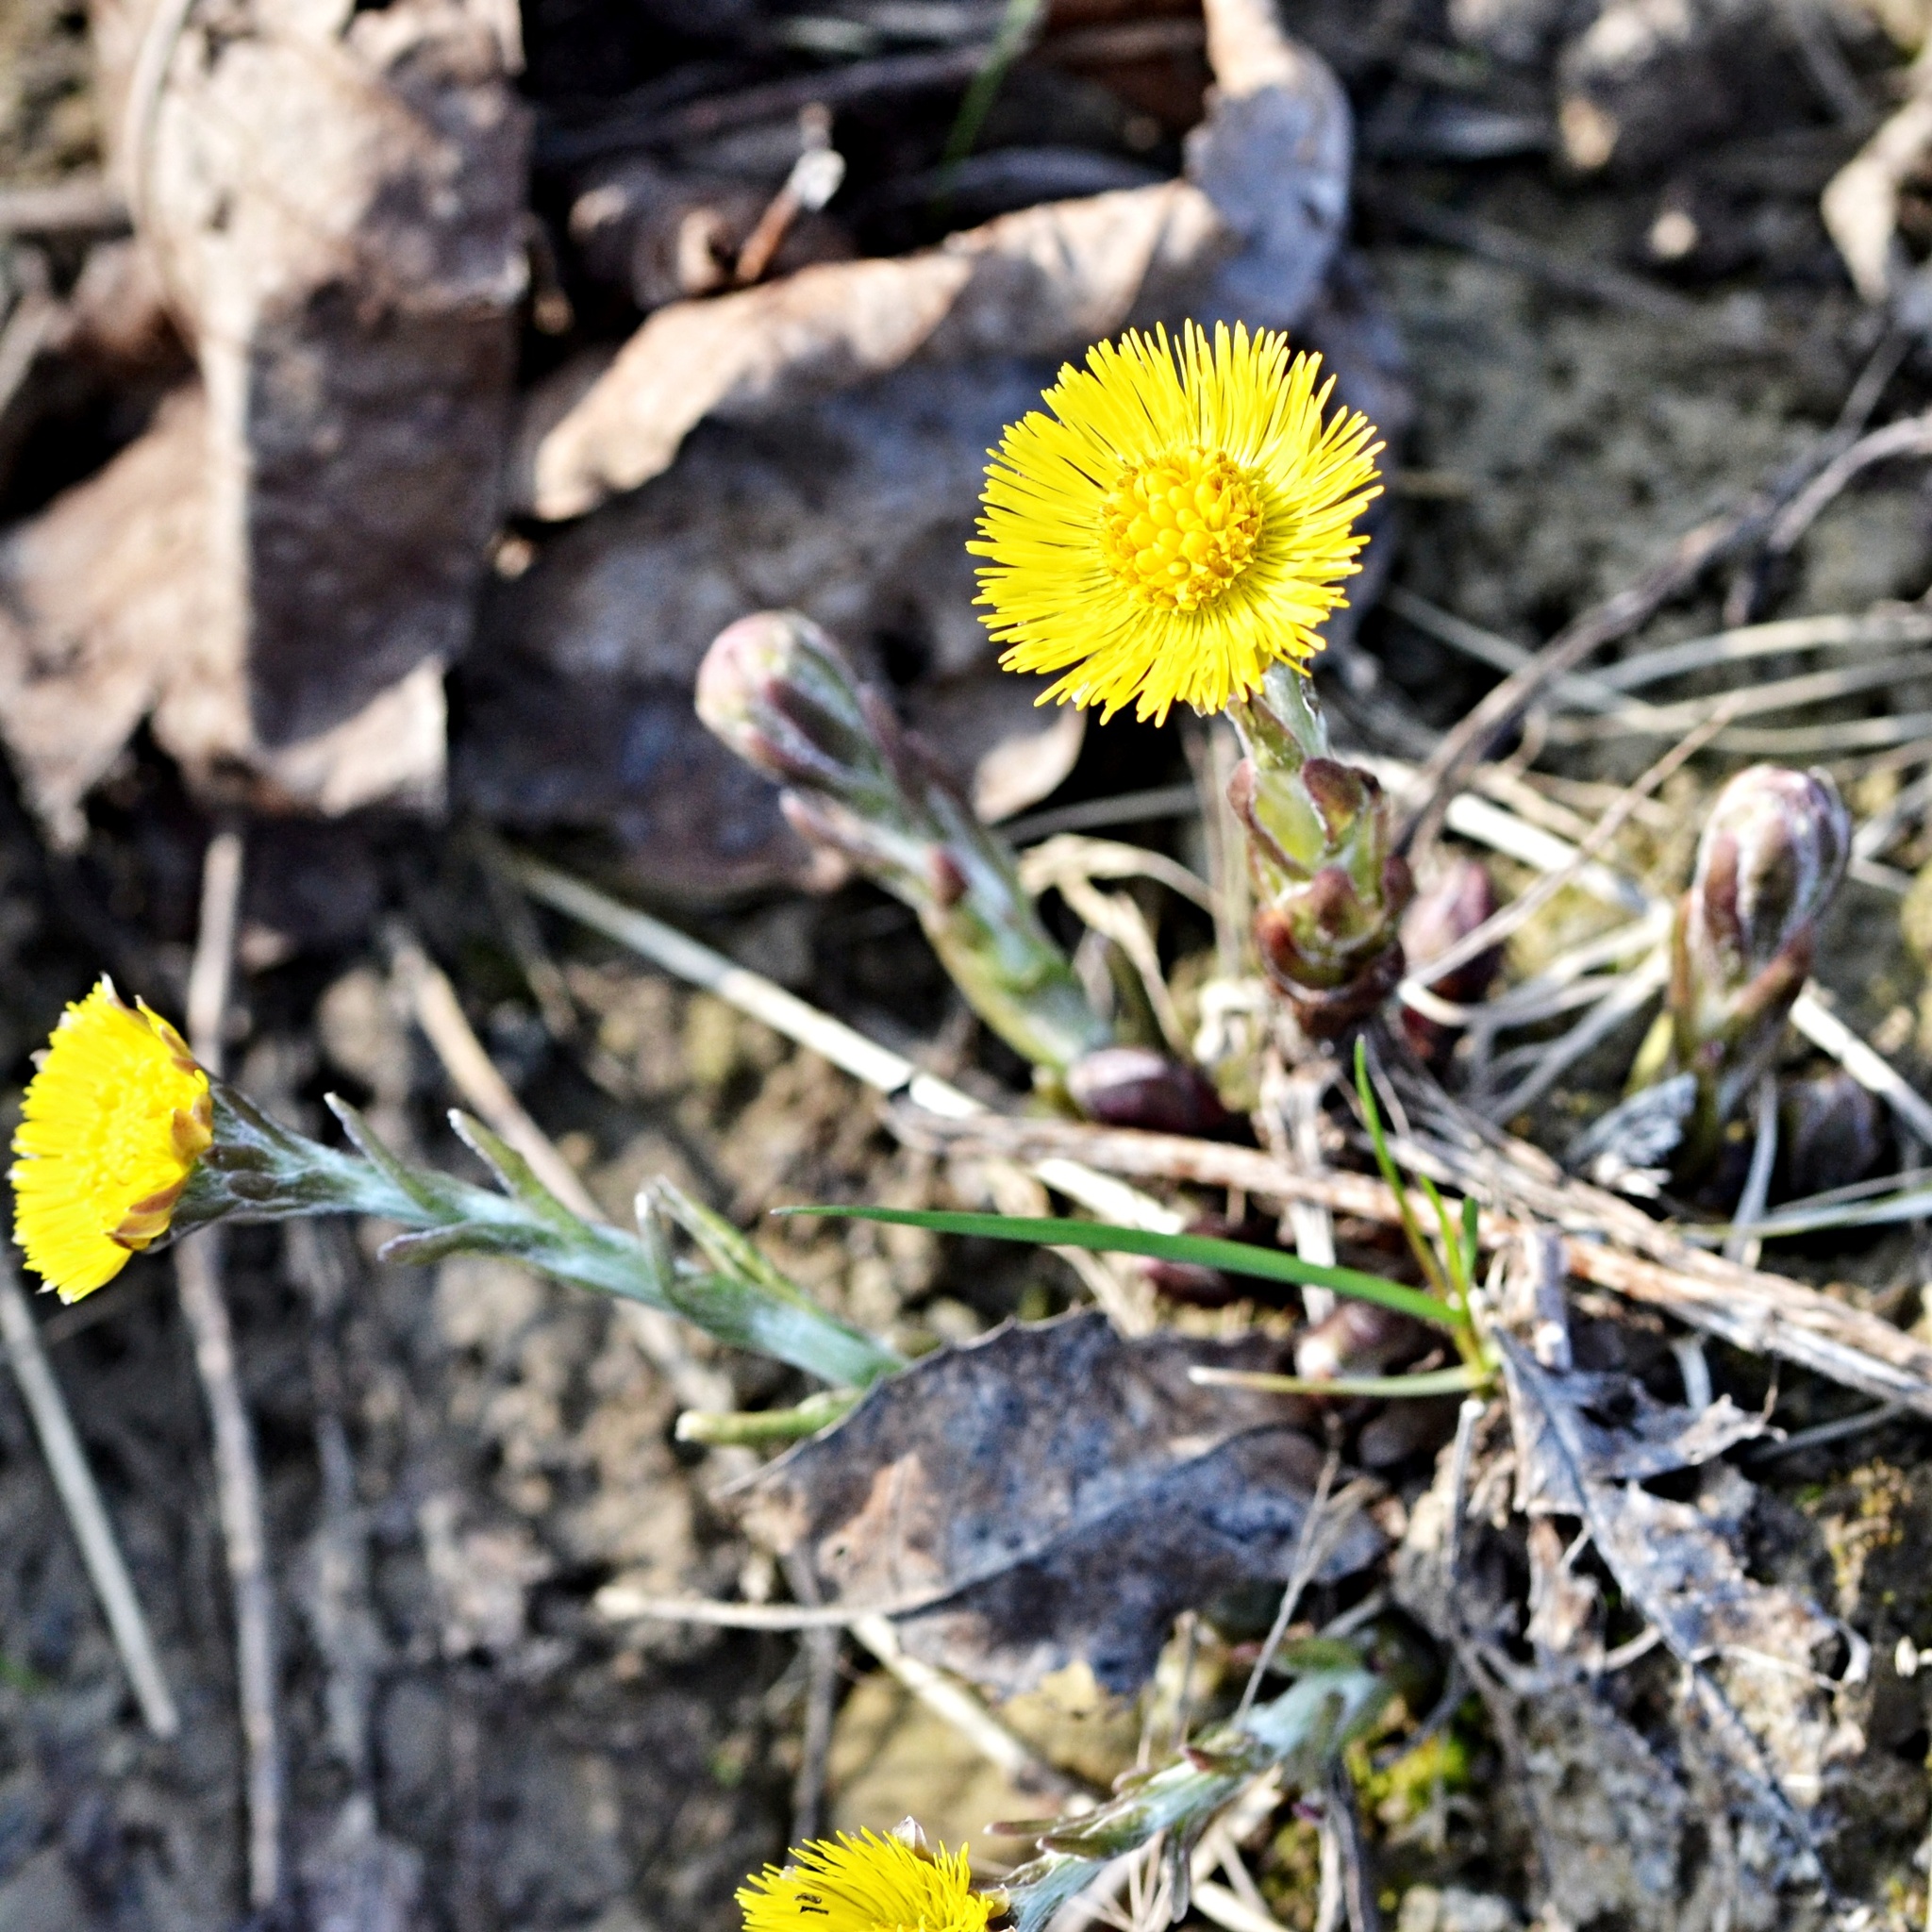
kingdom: Plantae
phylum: Tracheophyta
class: Magnoliopsida
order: Asterales
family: Asteraceae
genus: Tussilago
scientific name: Tussilago farfara
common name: Coltsfoot
